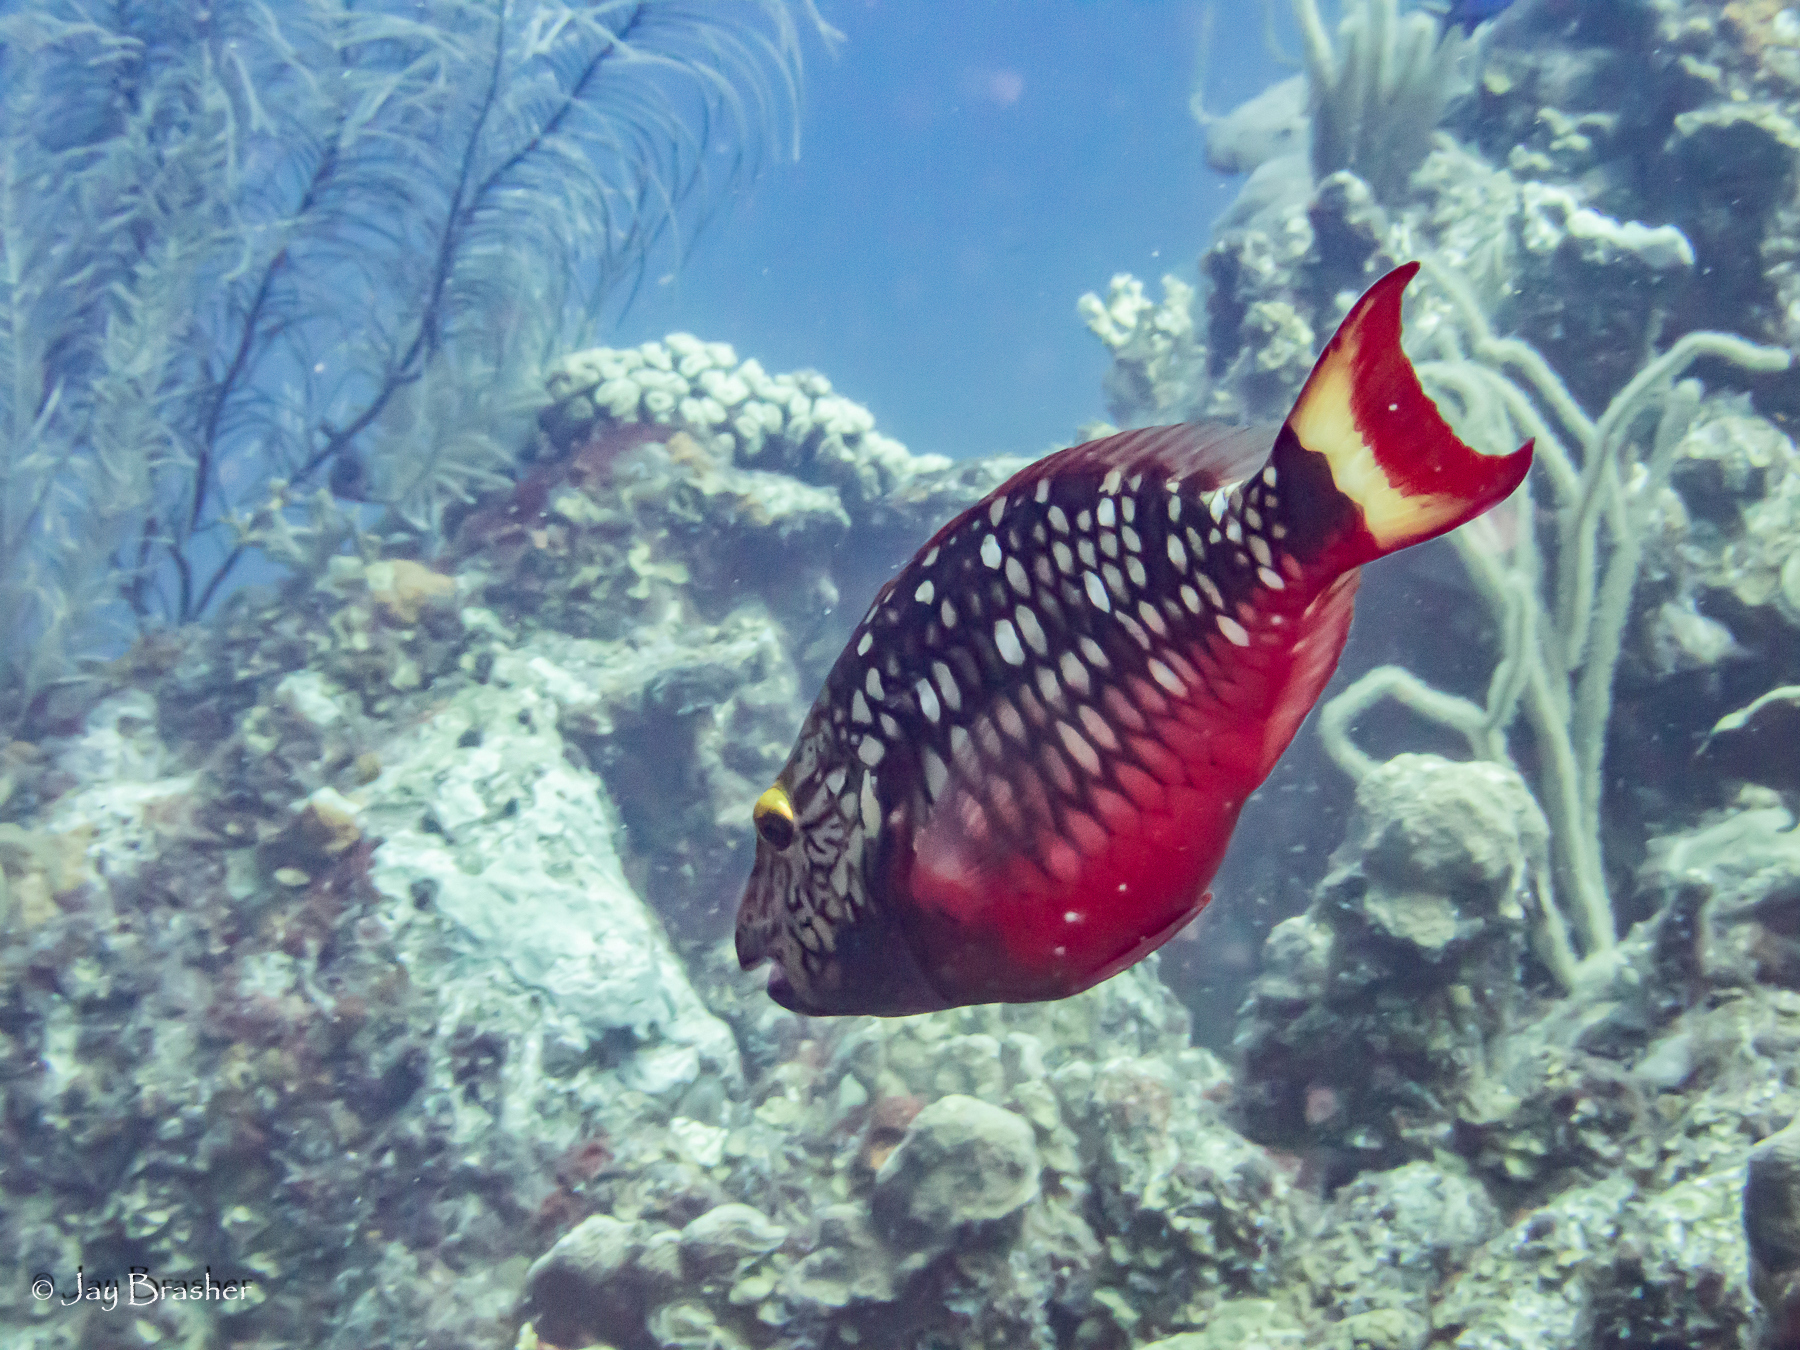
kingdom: Animalia
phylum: Chordata
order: Perciformes
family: Scaridae
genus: Sparisoma
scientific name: Sparisoma viride
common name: Stoplight parrotfish
